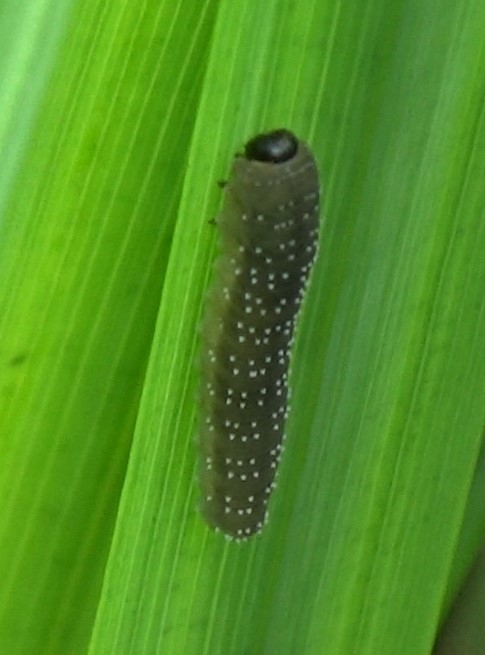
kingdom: Animalia
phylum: Arthropoda
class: Insecta
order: Hymenoptera
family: Tenthredinidae
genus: Rhadinoceraea
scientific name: Rhadinoceraea micans
